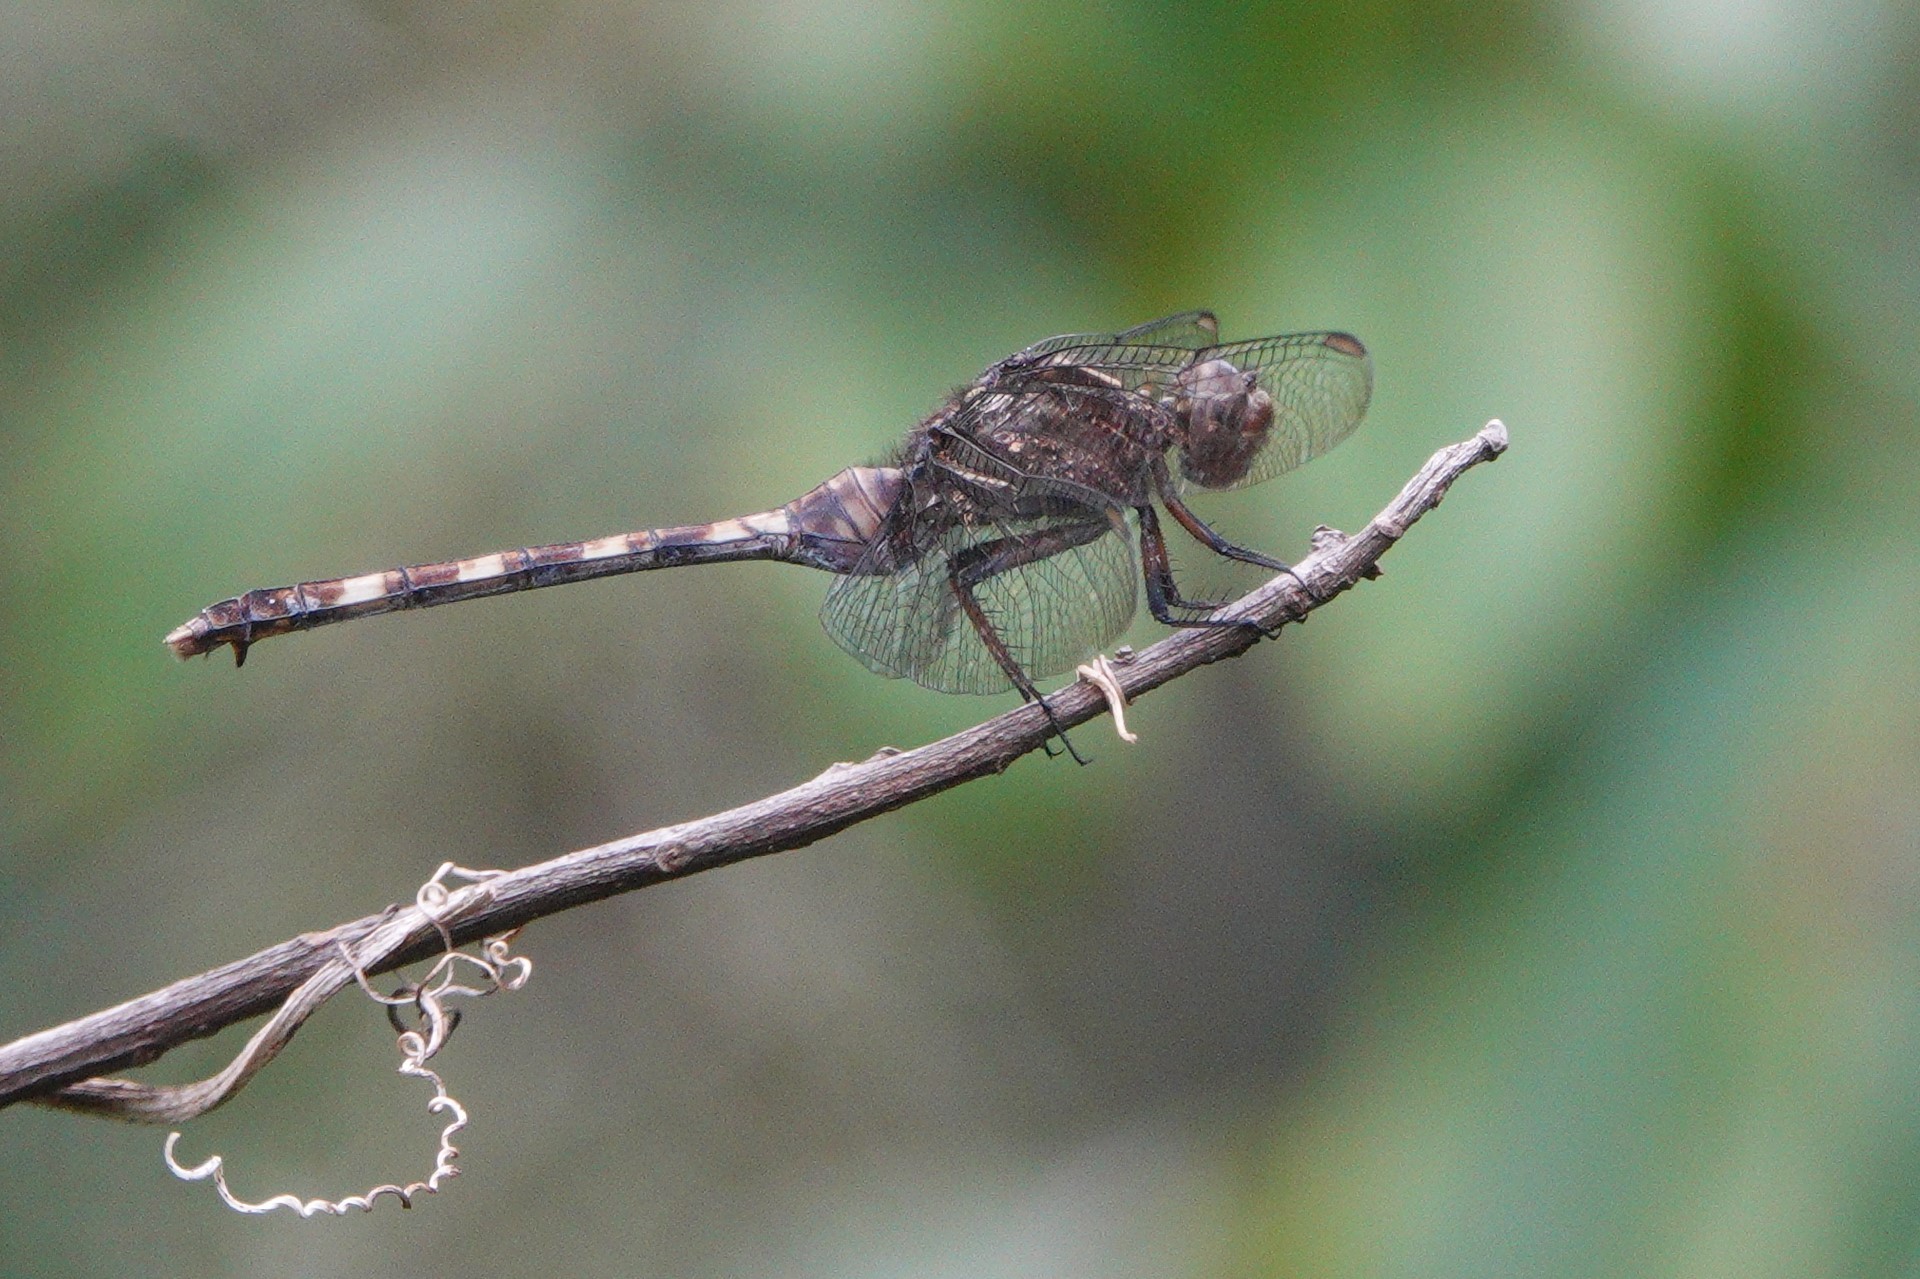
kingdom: Animalia
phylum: Arthropoda
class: Insecta
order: Odonata
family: Libellulidae
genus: Erythemis
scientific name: Erythemis plebeja
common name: Pin-tailed pondhawk
